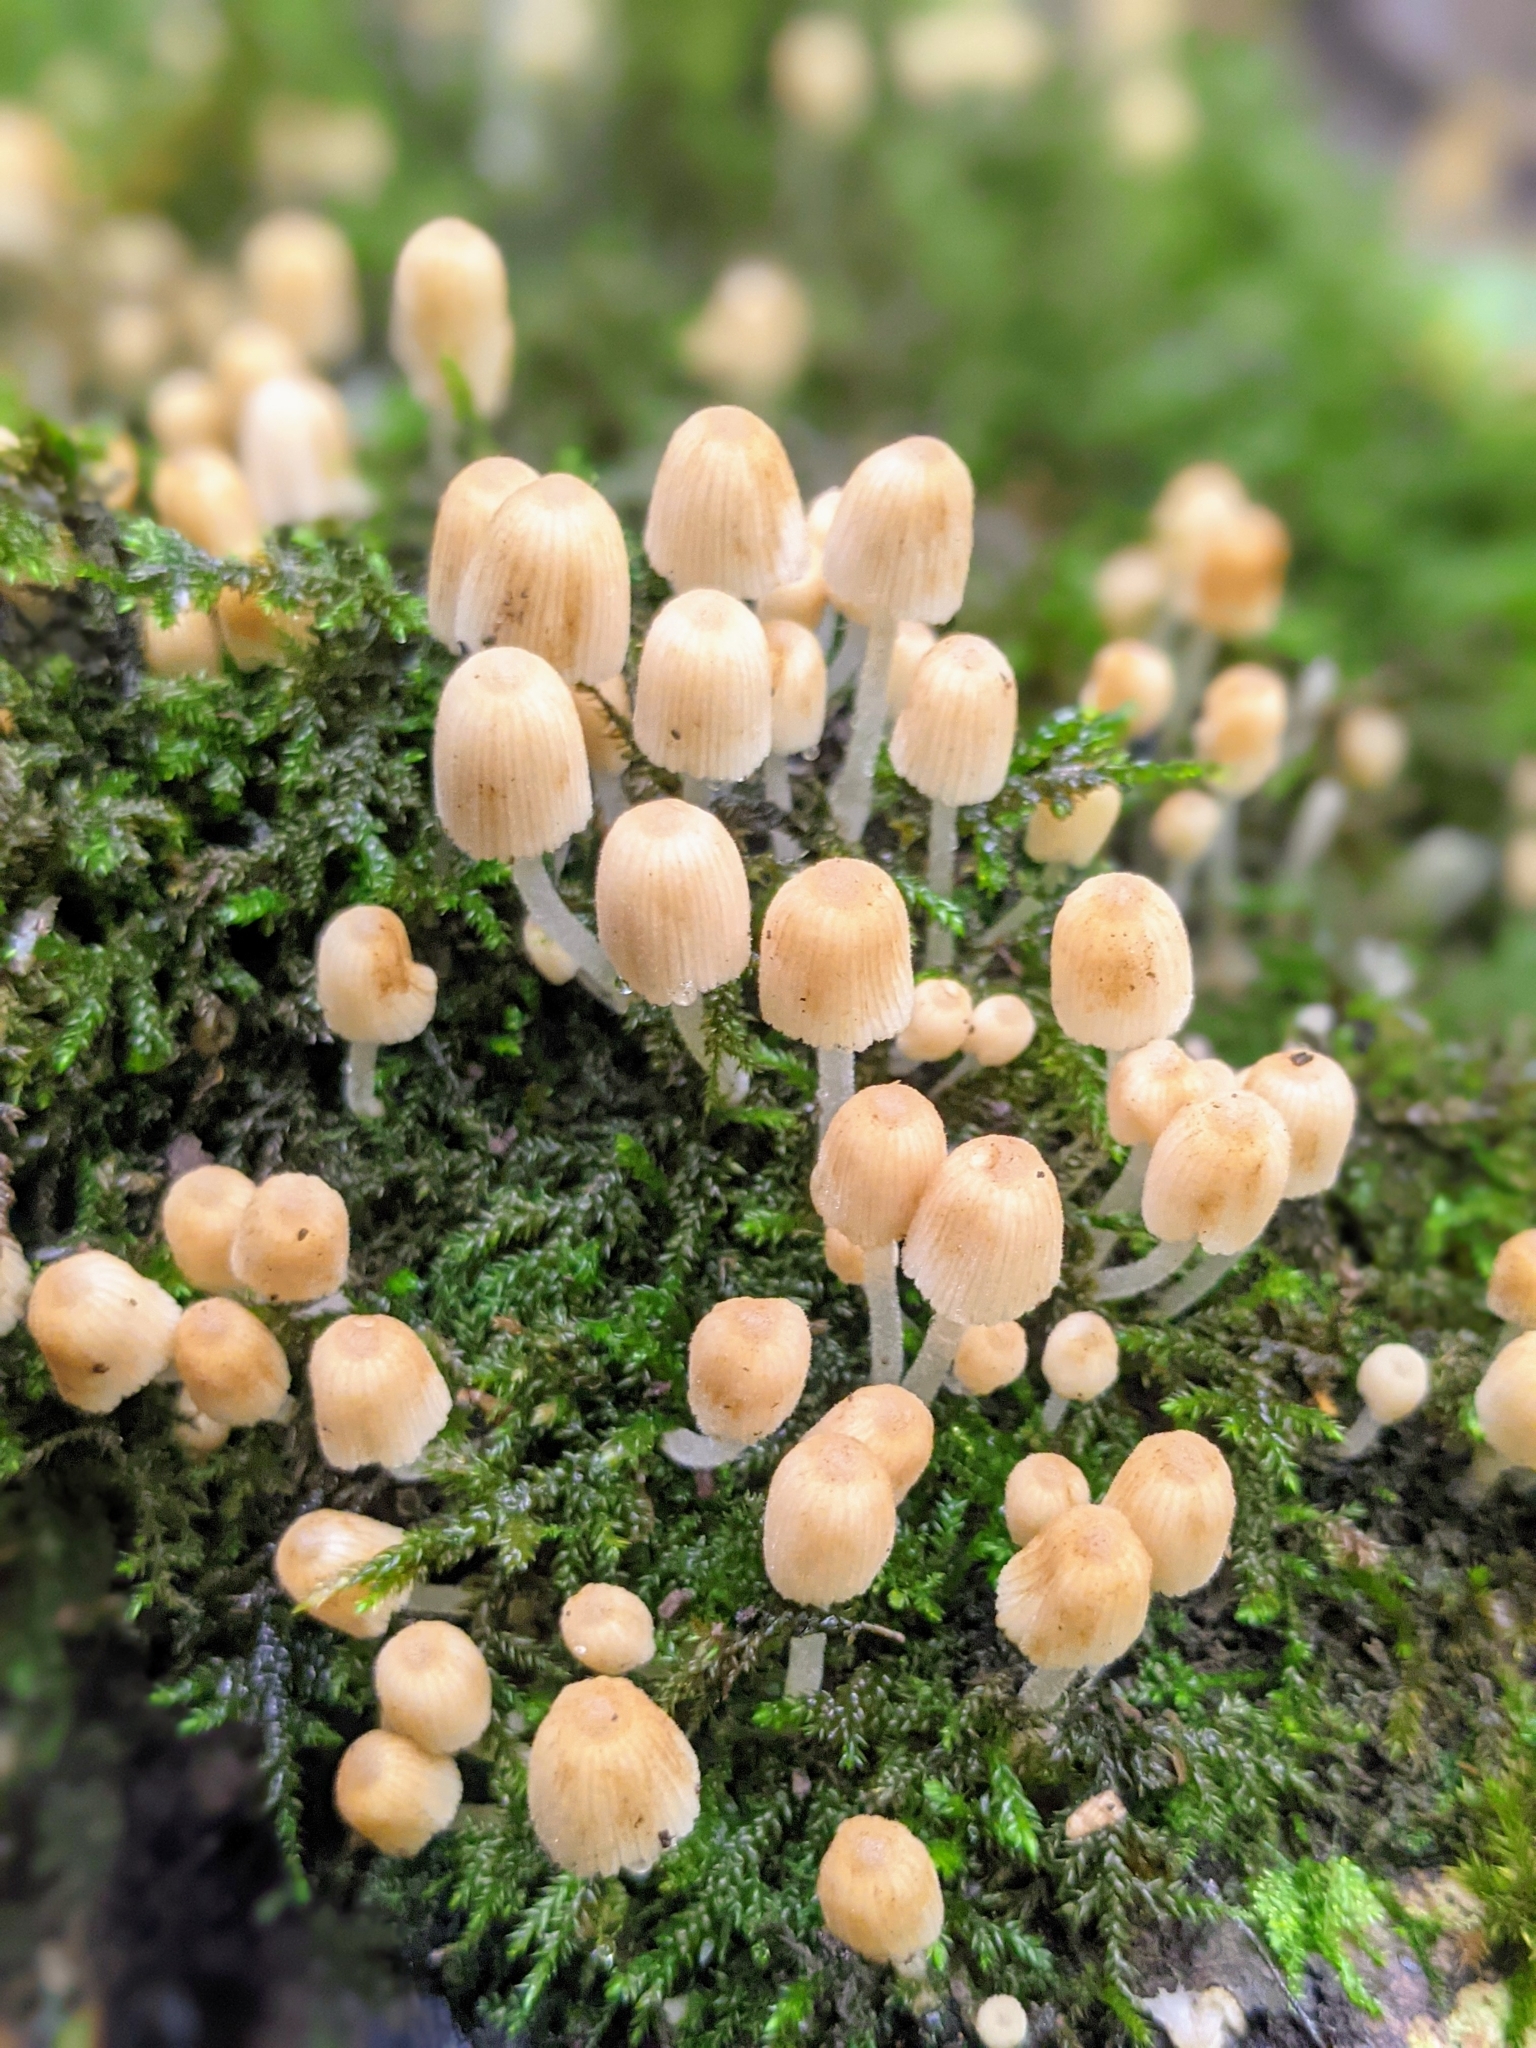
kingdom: Fungi
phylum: Basidiomycota
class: Agaricomycetes
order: Agaricales
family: Psathyrellaceae
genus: Coprinellus
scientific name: Coprinellus disseminatus
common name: Fairies' bonnets
